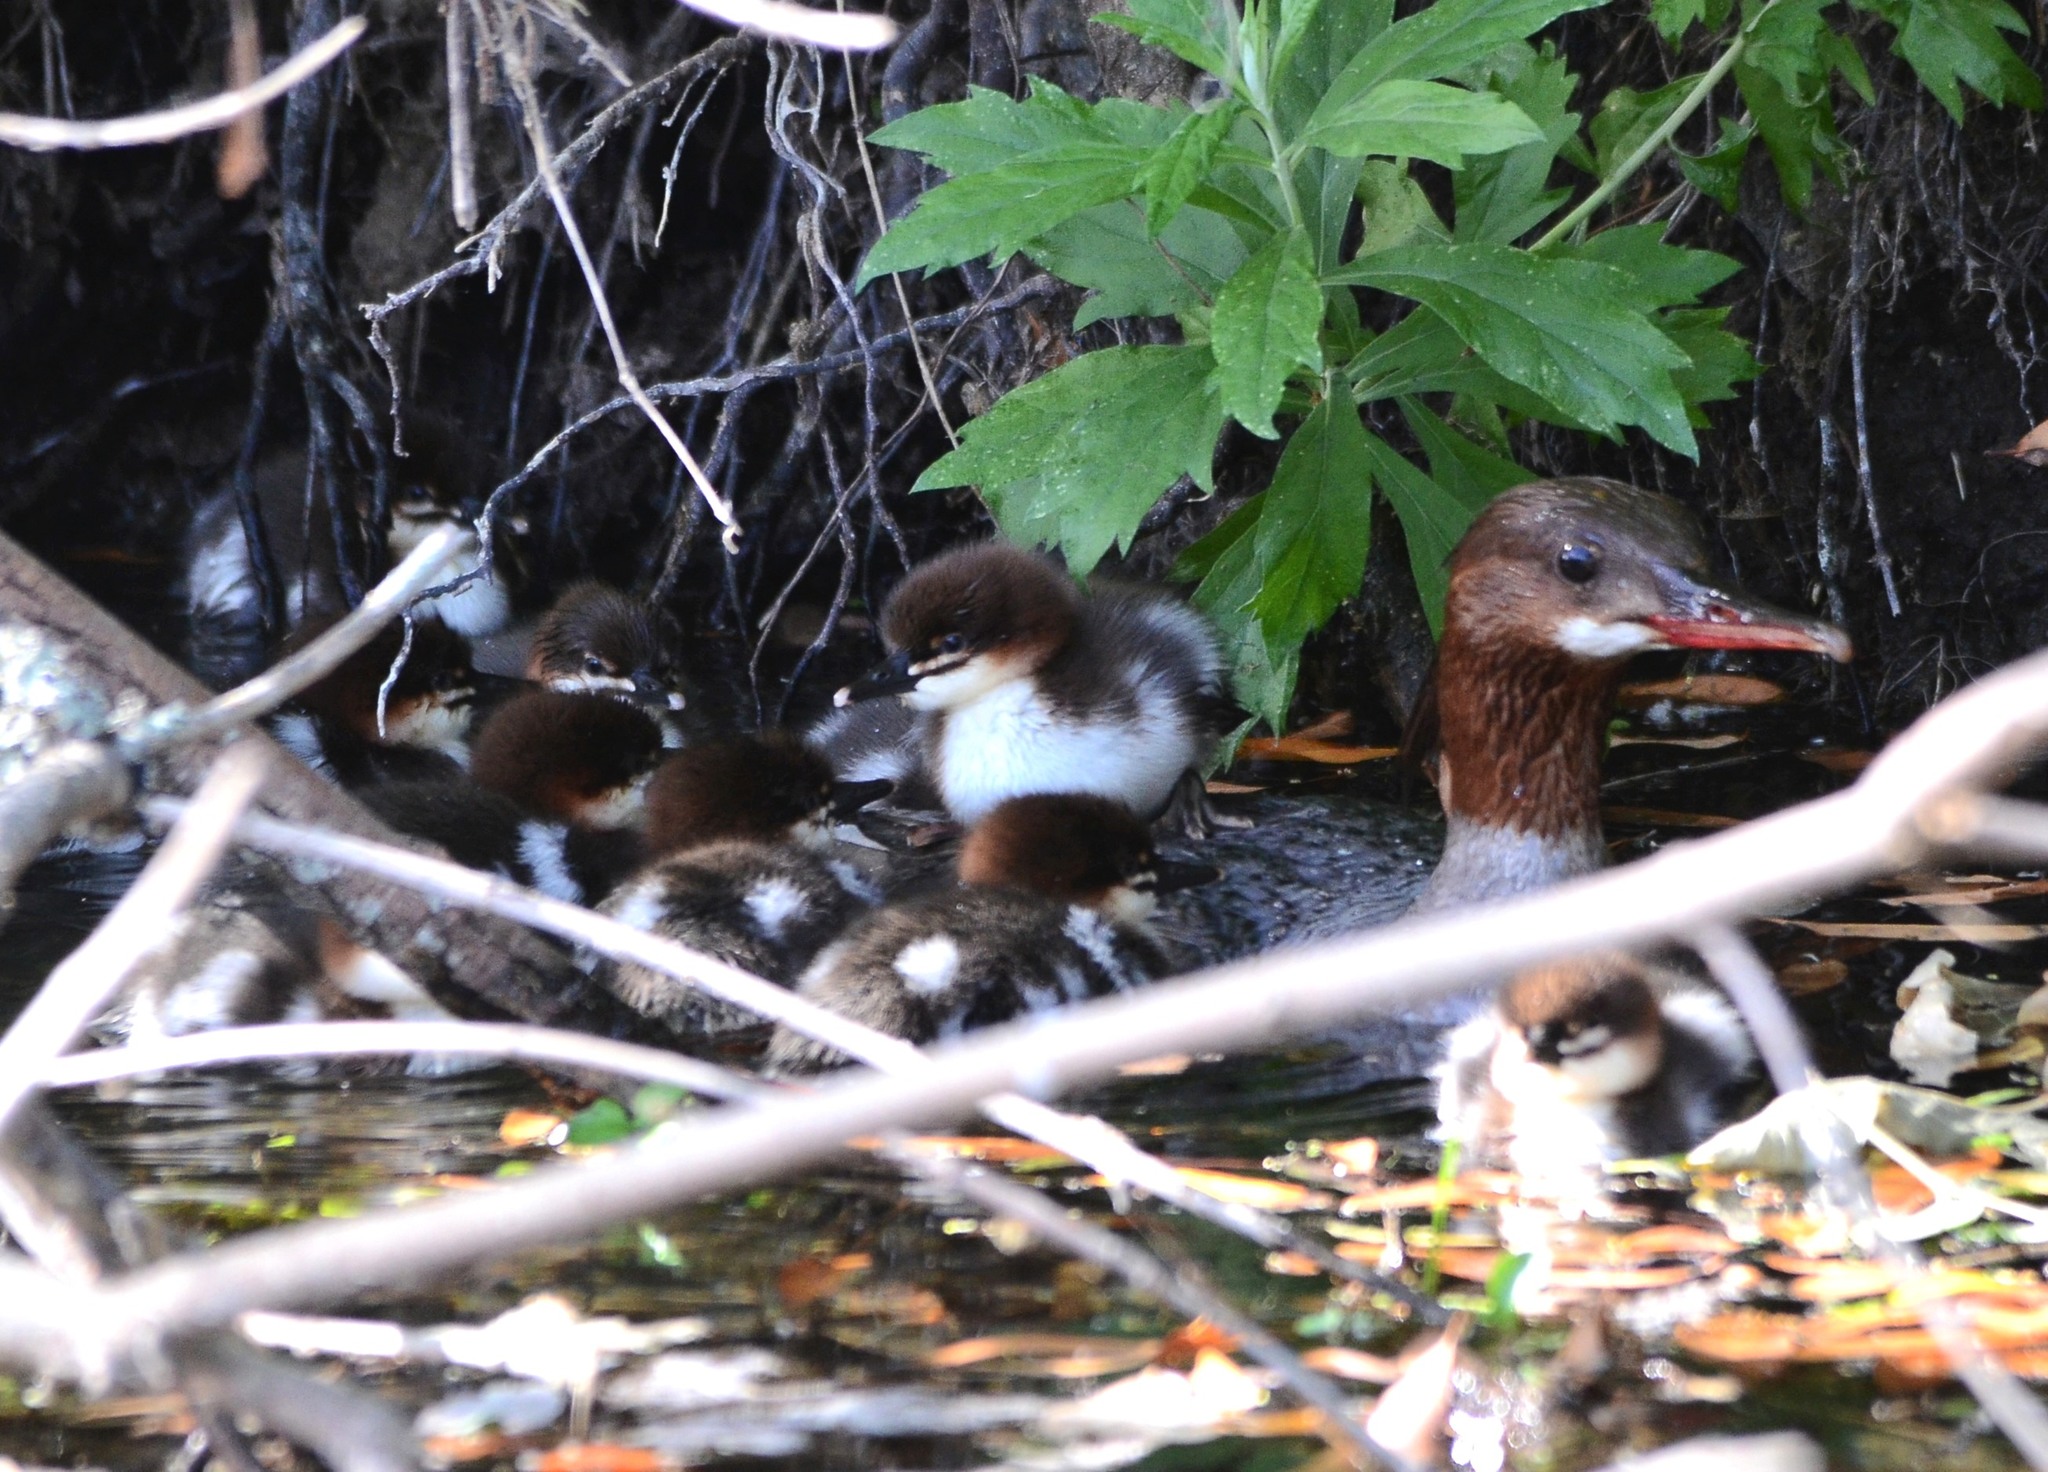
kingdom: Animalia
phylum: Chordata
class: Aves
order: Anseriformes
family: Anatidae
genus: Mergus
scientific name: Mergus merganser
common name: Common merganser
